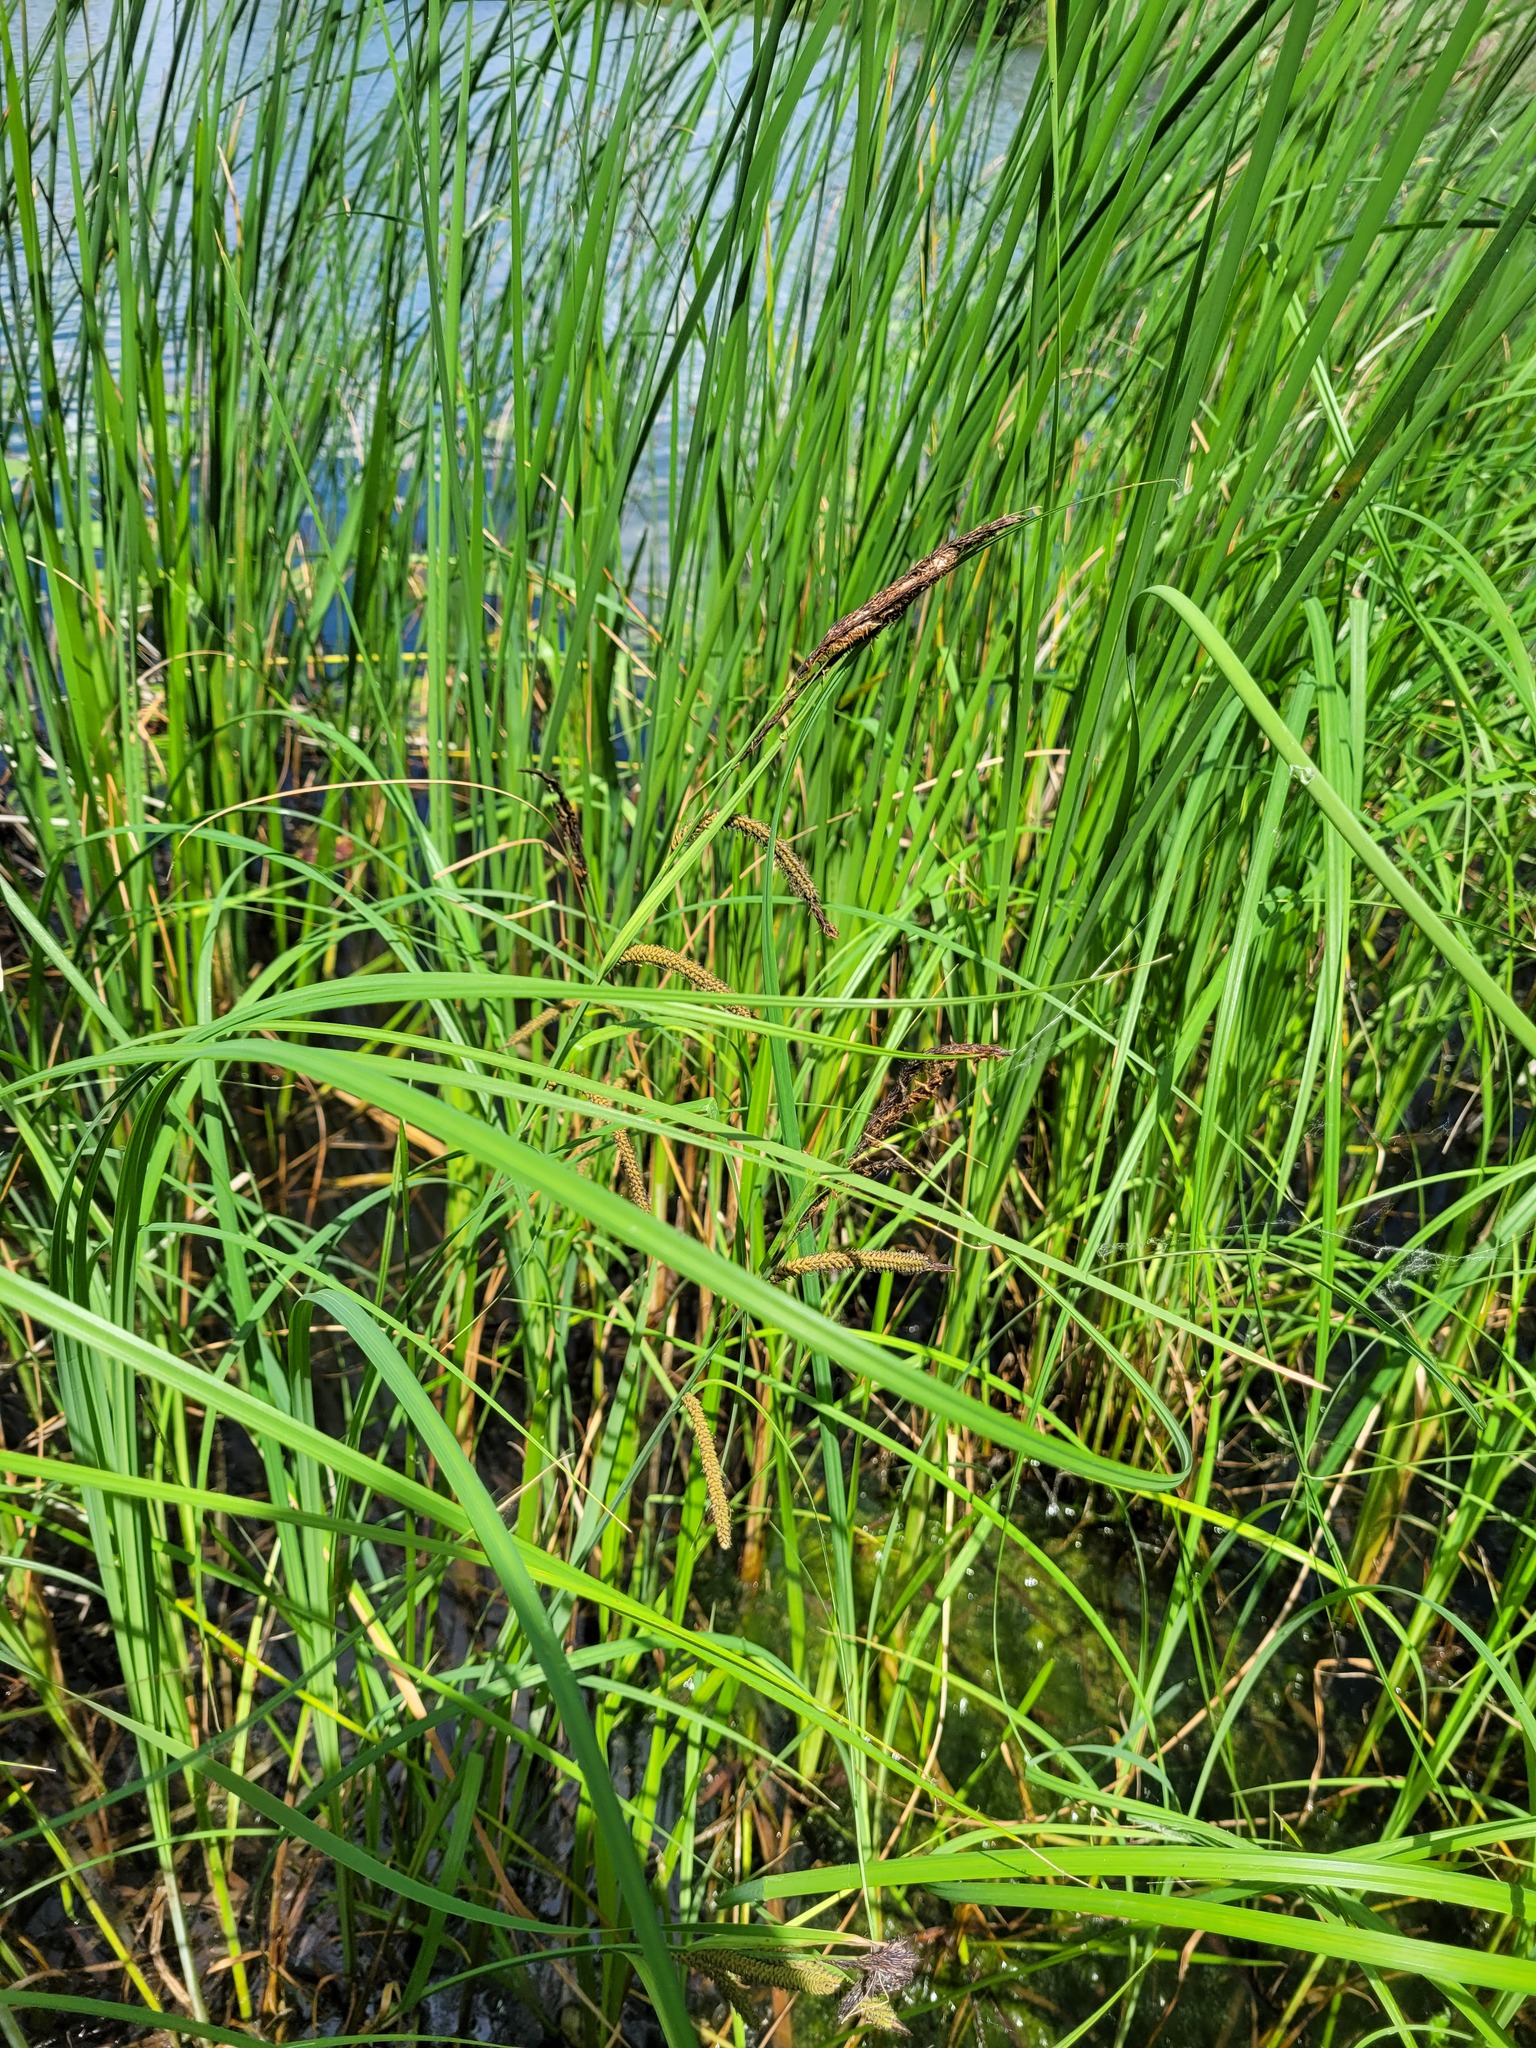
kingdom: Plantae
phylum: Tracheophyta
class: Liliopsida
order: Poales
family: Cyperaceae
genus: Carex
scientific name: Carex acuta
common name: Slender tufted-sedge
